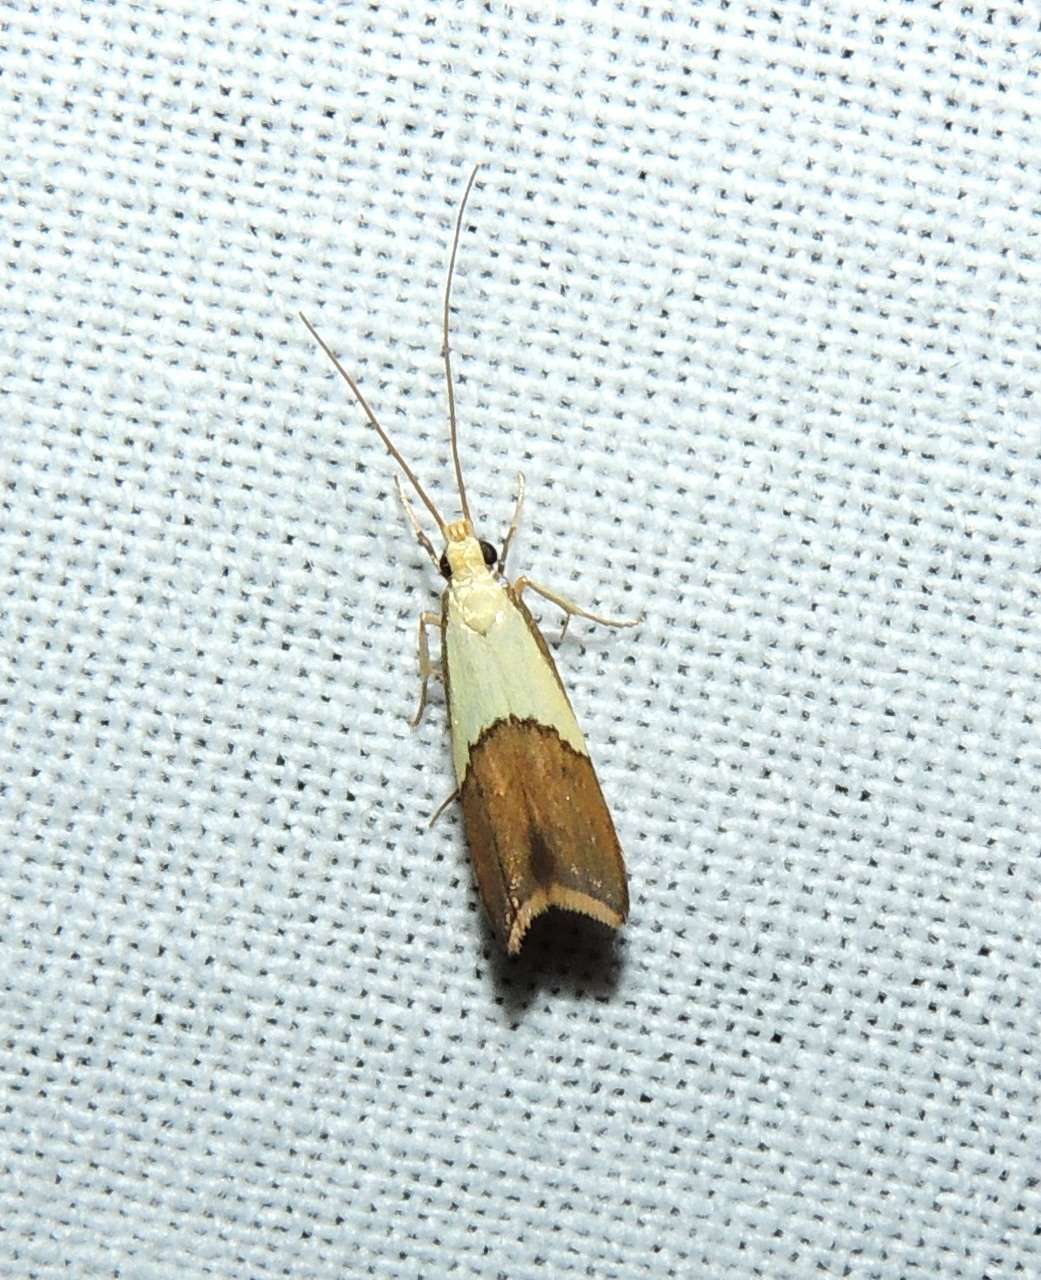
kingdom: Animalia
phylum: Arthropoda
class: Insecta
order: Lepidoptera
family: Lecithoceridae
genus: Crocanthes
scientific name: Crocanthes glycina
